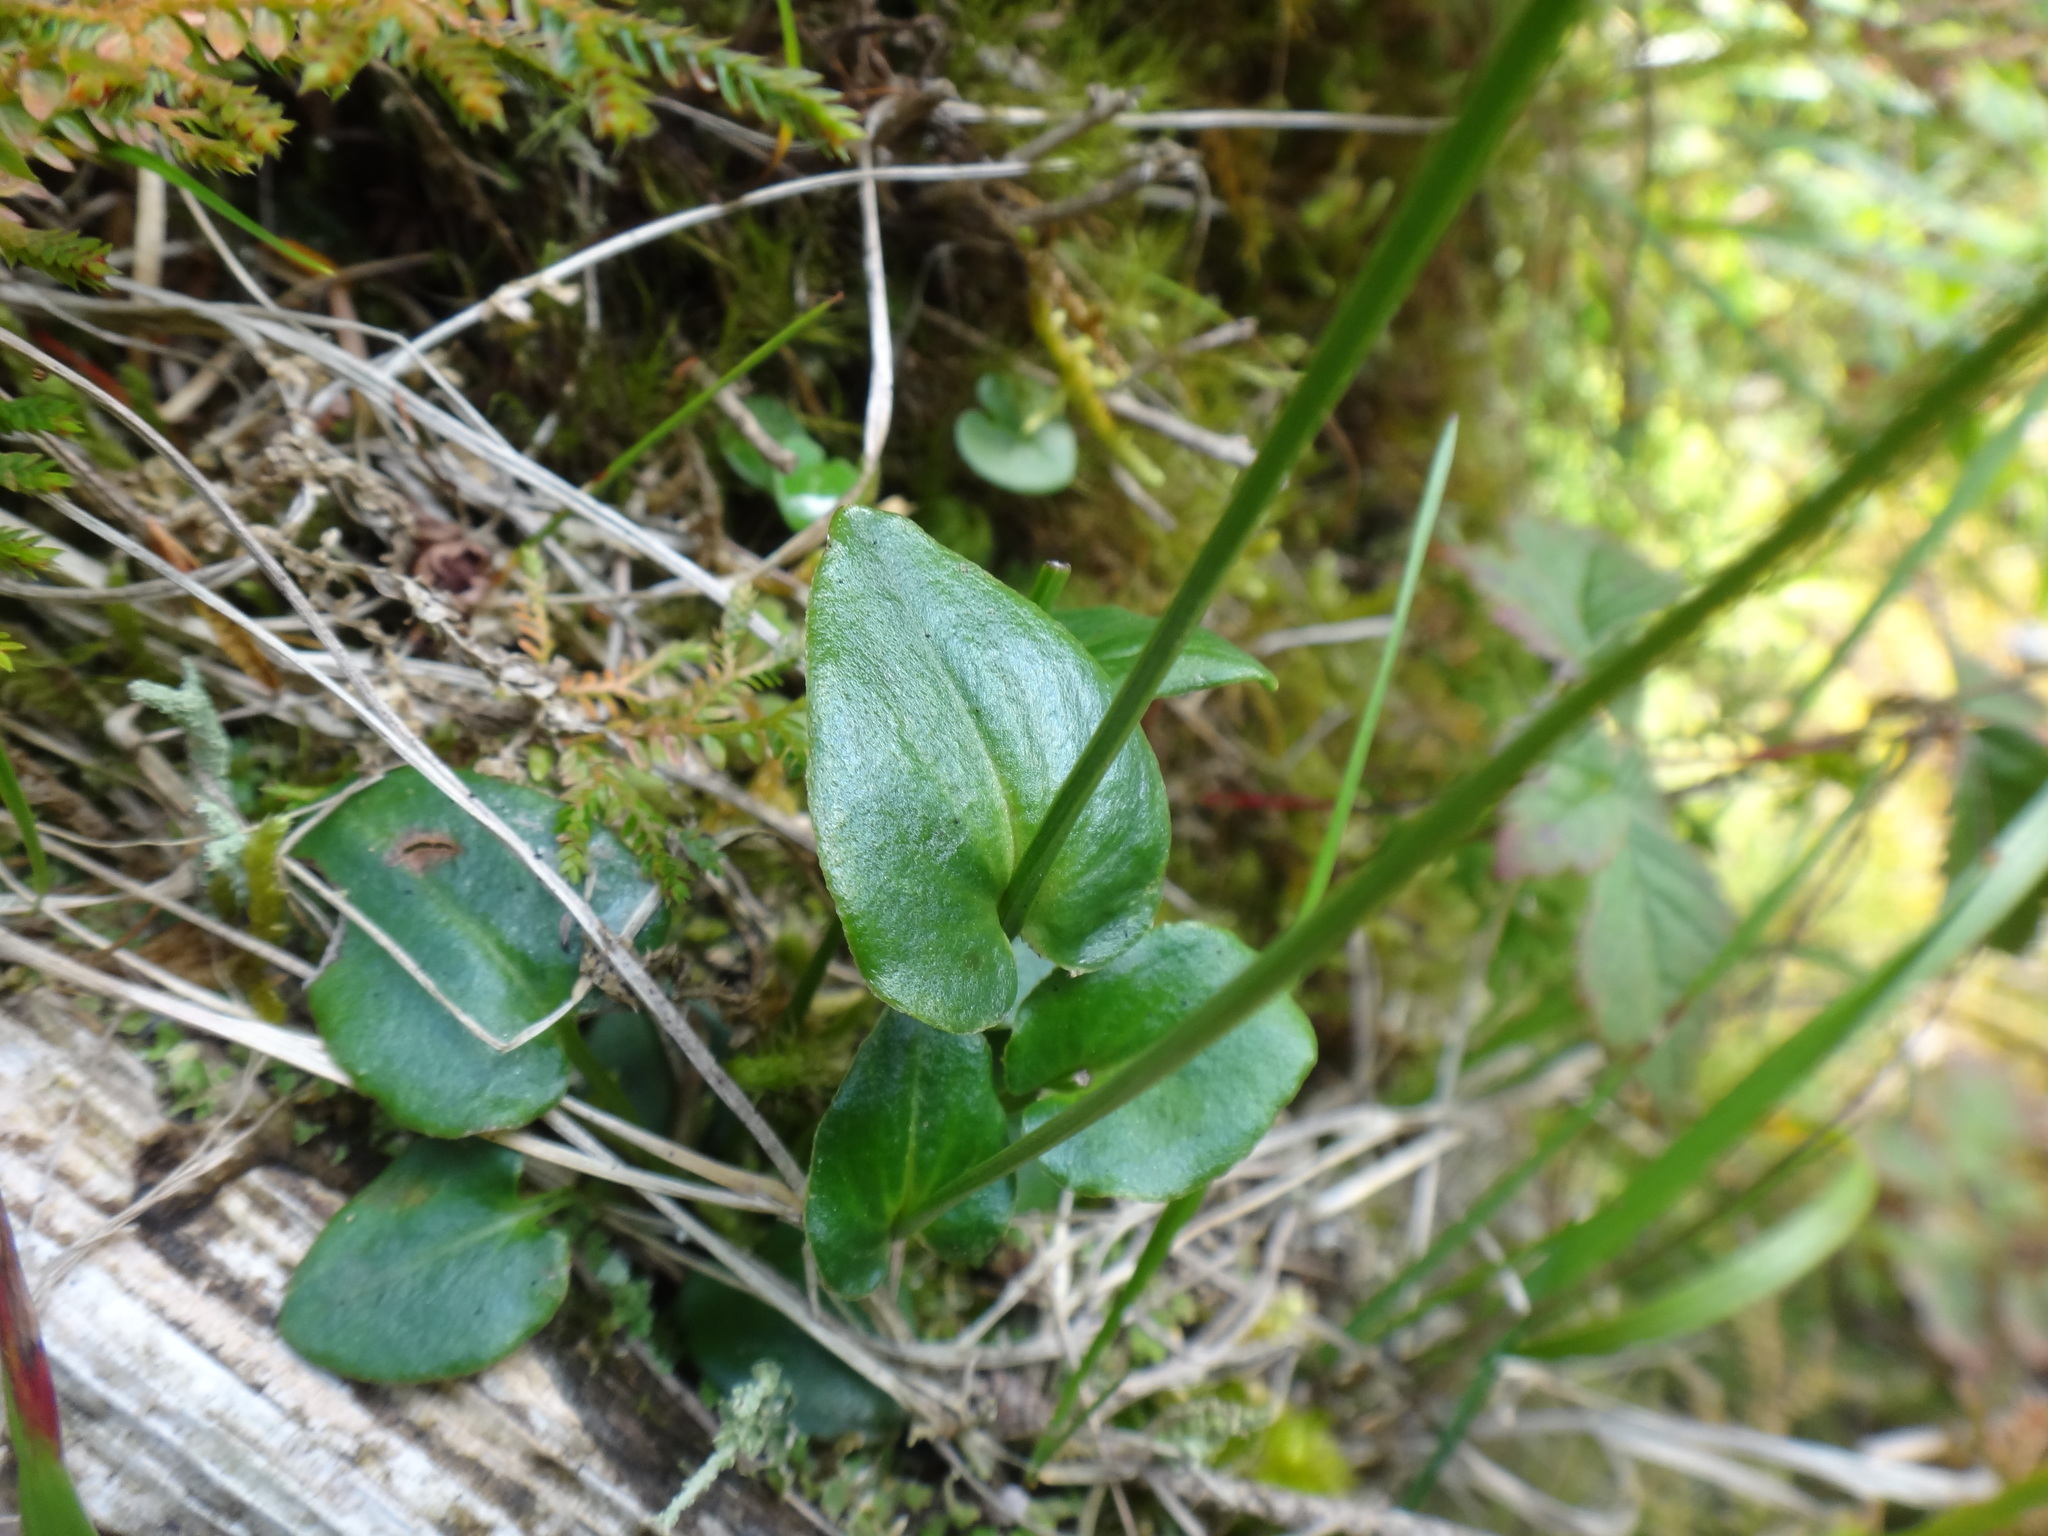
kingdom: Plantae
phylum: Tracheophyta
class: Magnoliopsida
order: Celastrales
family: Parnassiaceae
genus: Parnassia
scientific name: Parnassia palustris
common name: Grass-of-parnassus
